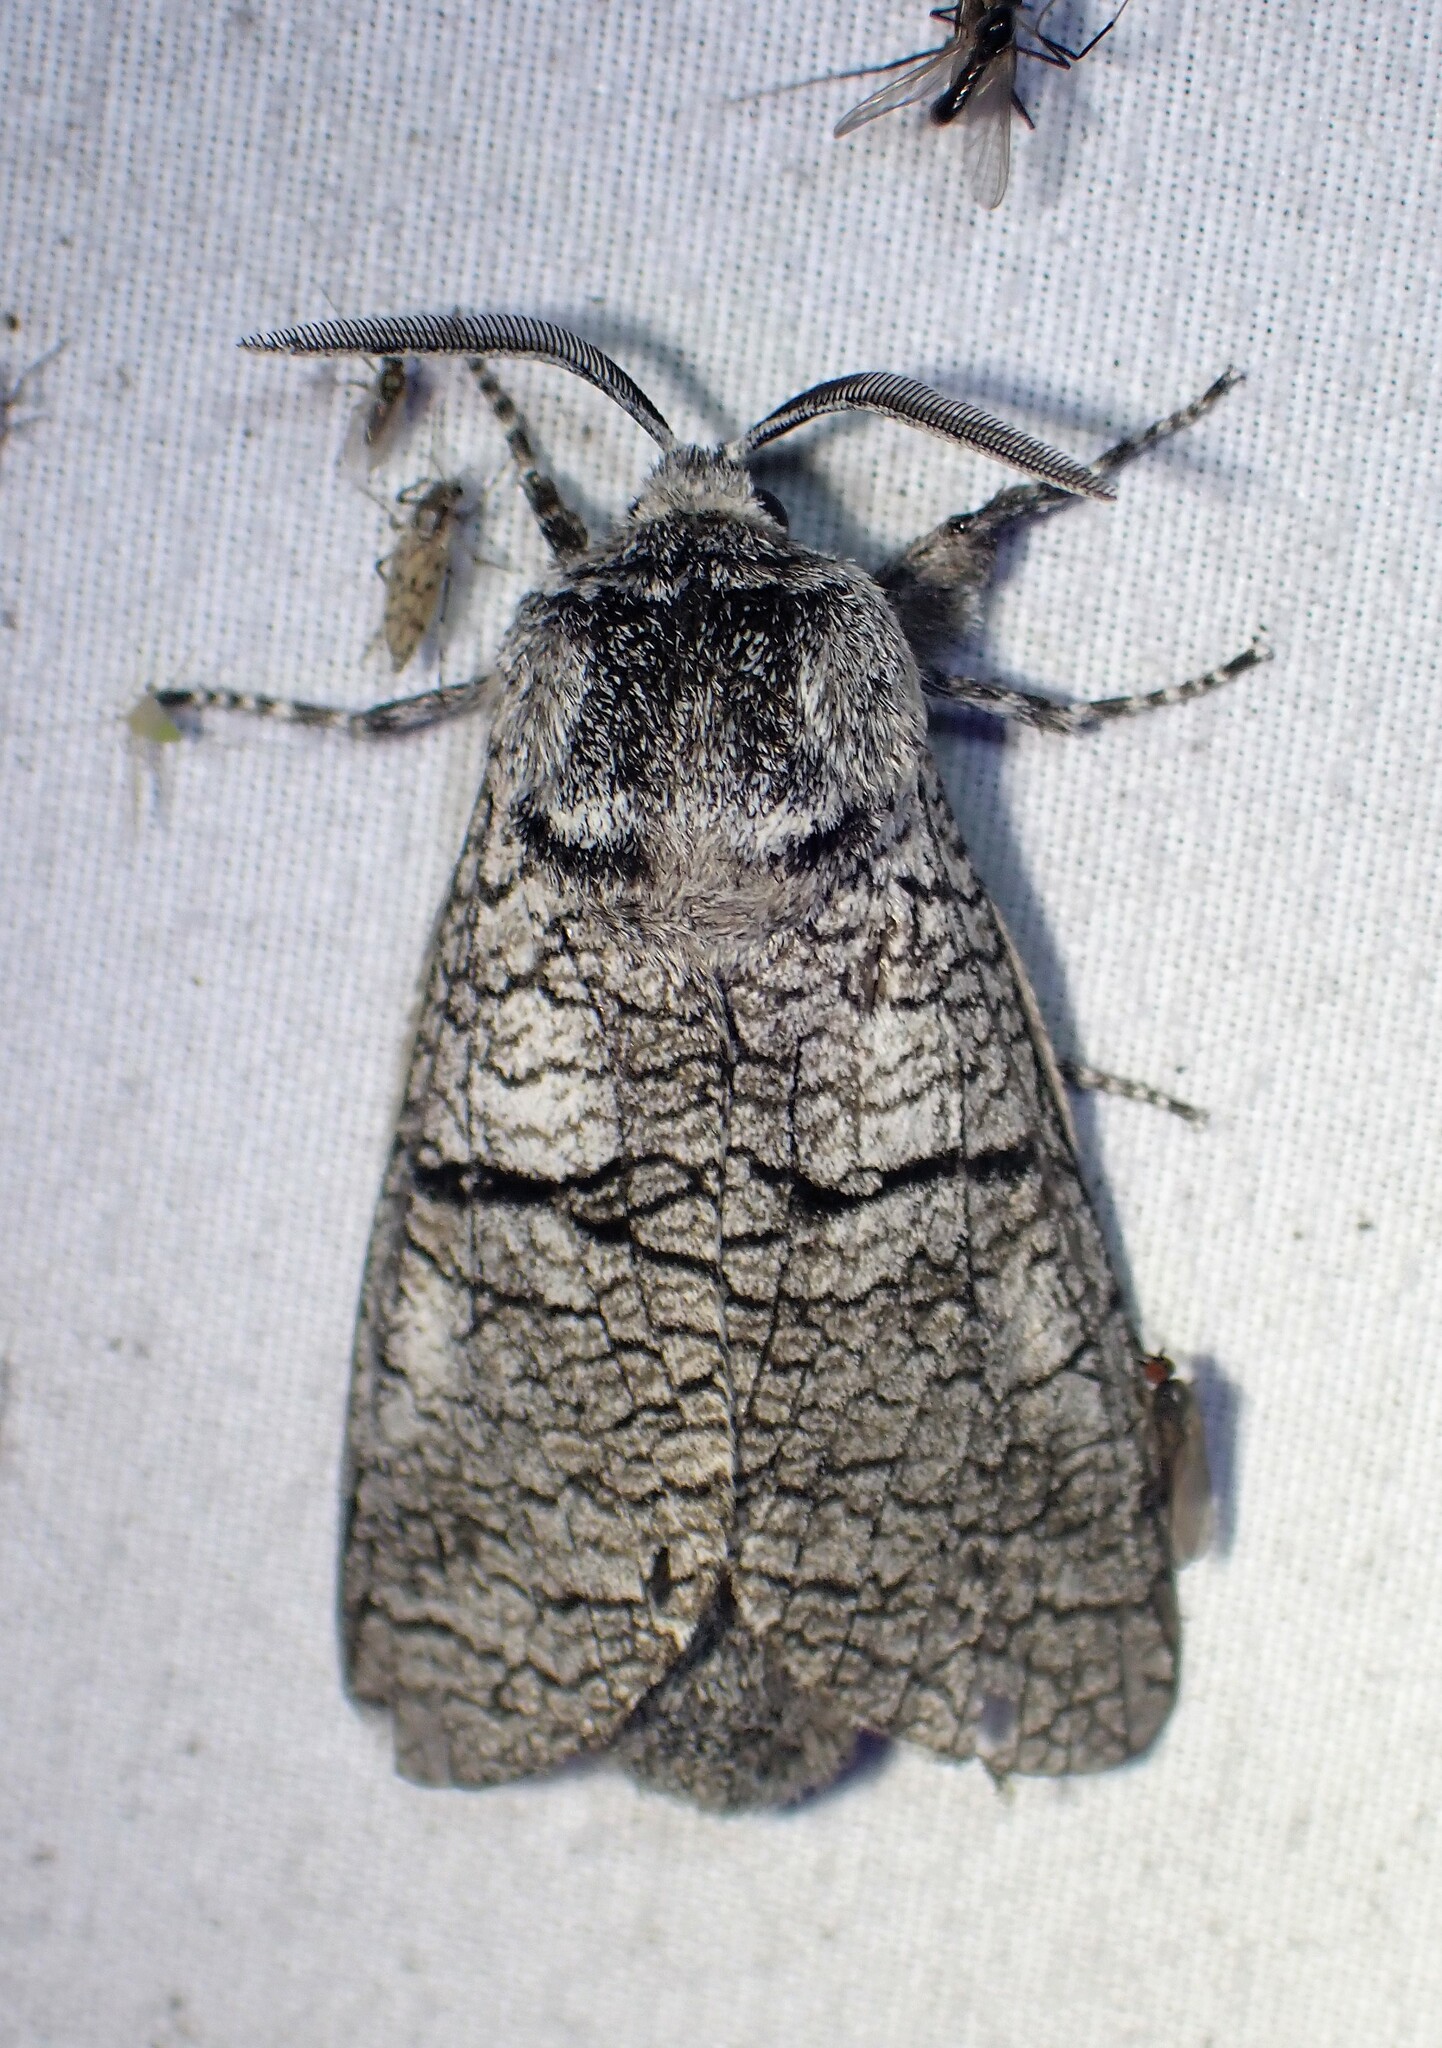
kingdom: Animalia
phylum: Arthropoda
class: Insecta
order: Lepidoptera
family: Cossidae
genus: Acossus
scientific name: Acossus populi
